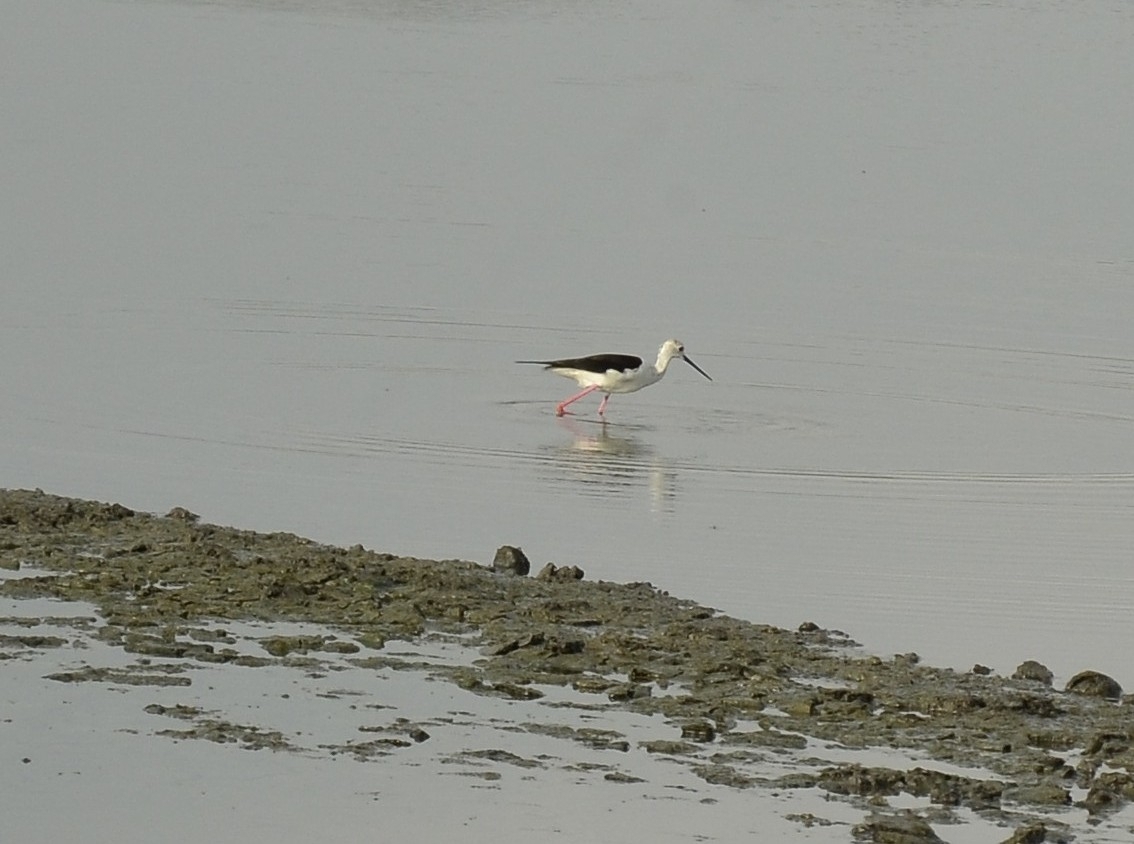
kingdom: Animalia
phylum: Chordata
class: Aves
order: Charadriiformes
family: Recurvirostridae
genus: Himantopus
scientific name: Himantopus himantopus
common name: Black-winged stilt
